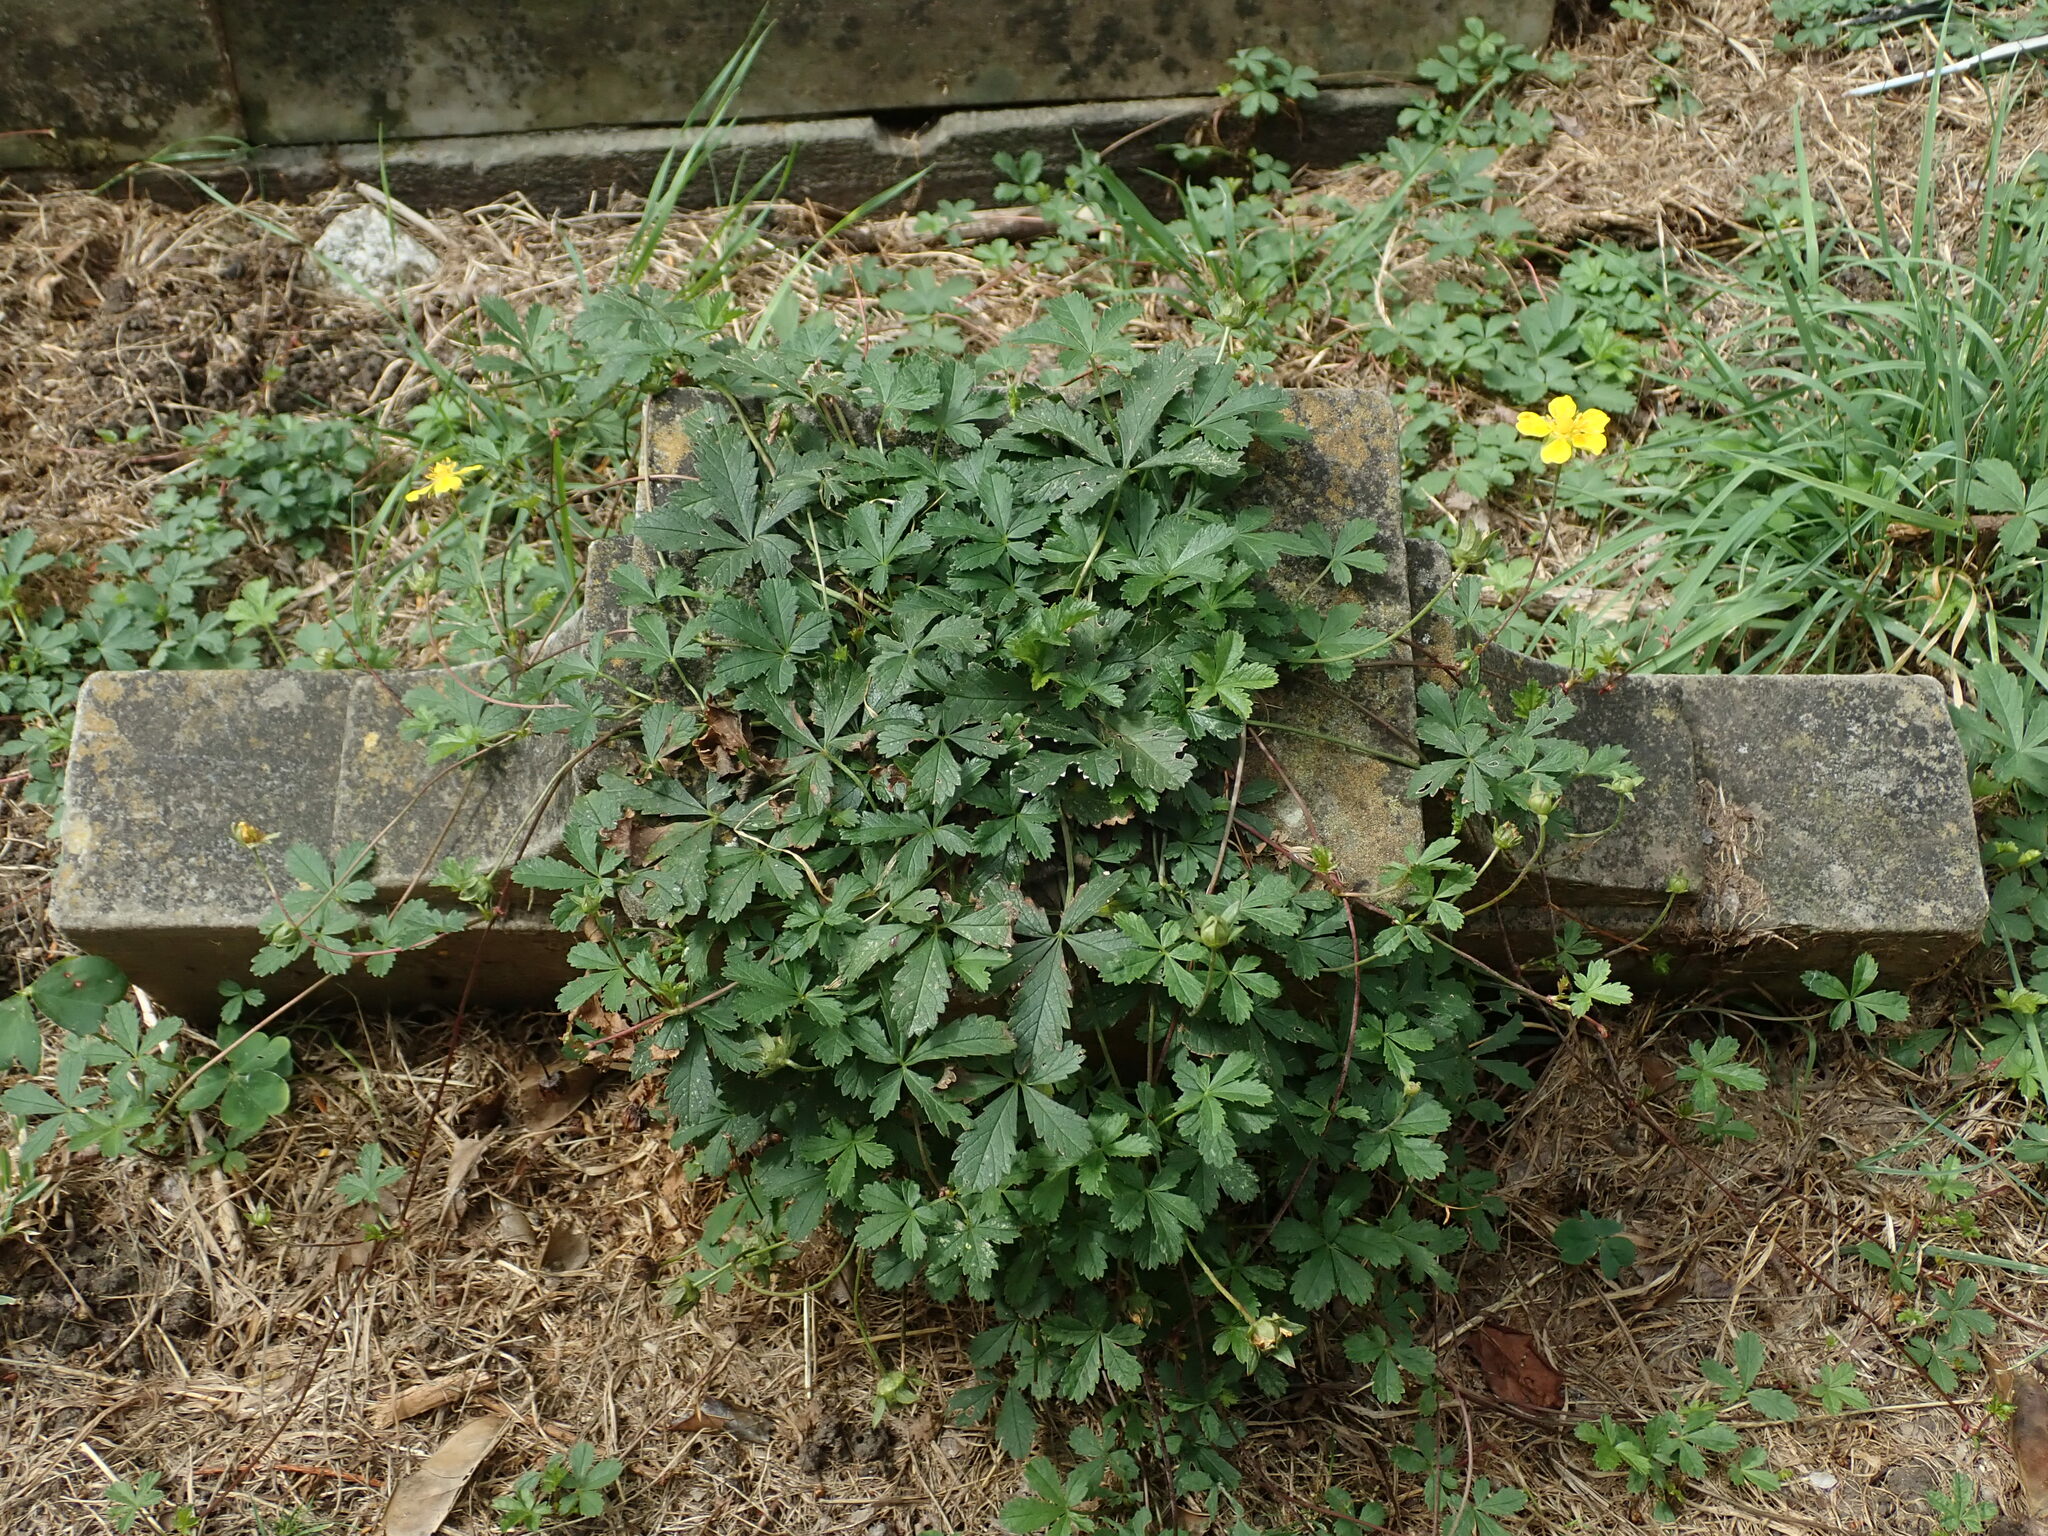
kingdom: Plantae
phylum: Tracheophyta
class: Magnoliopsida
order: Rosales
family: Rosaceae
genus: Potentilla
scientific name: Potentilla reptans
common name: Creeping cinquefoil
